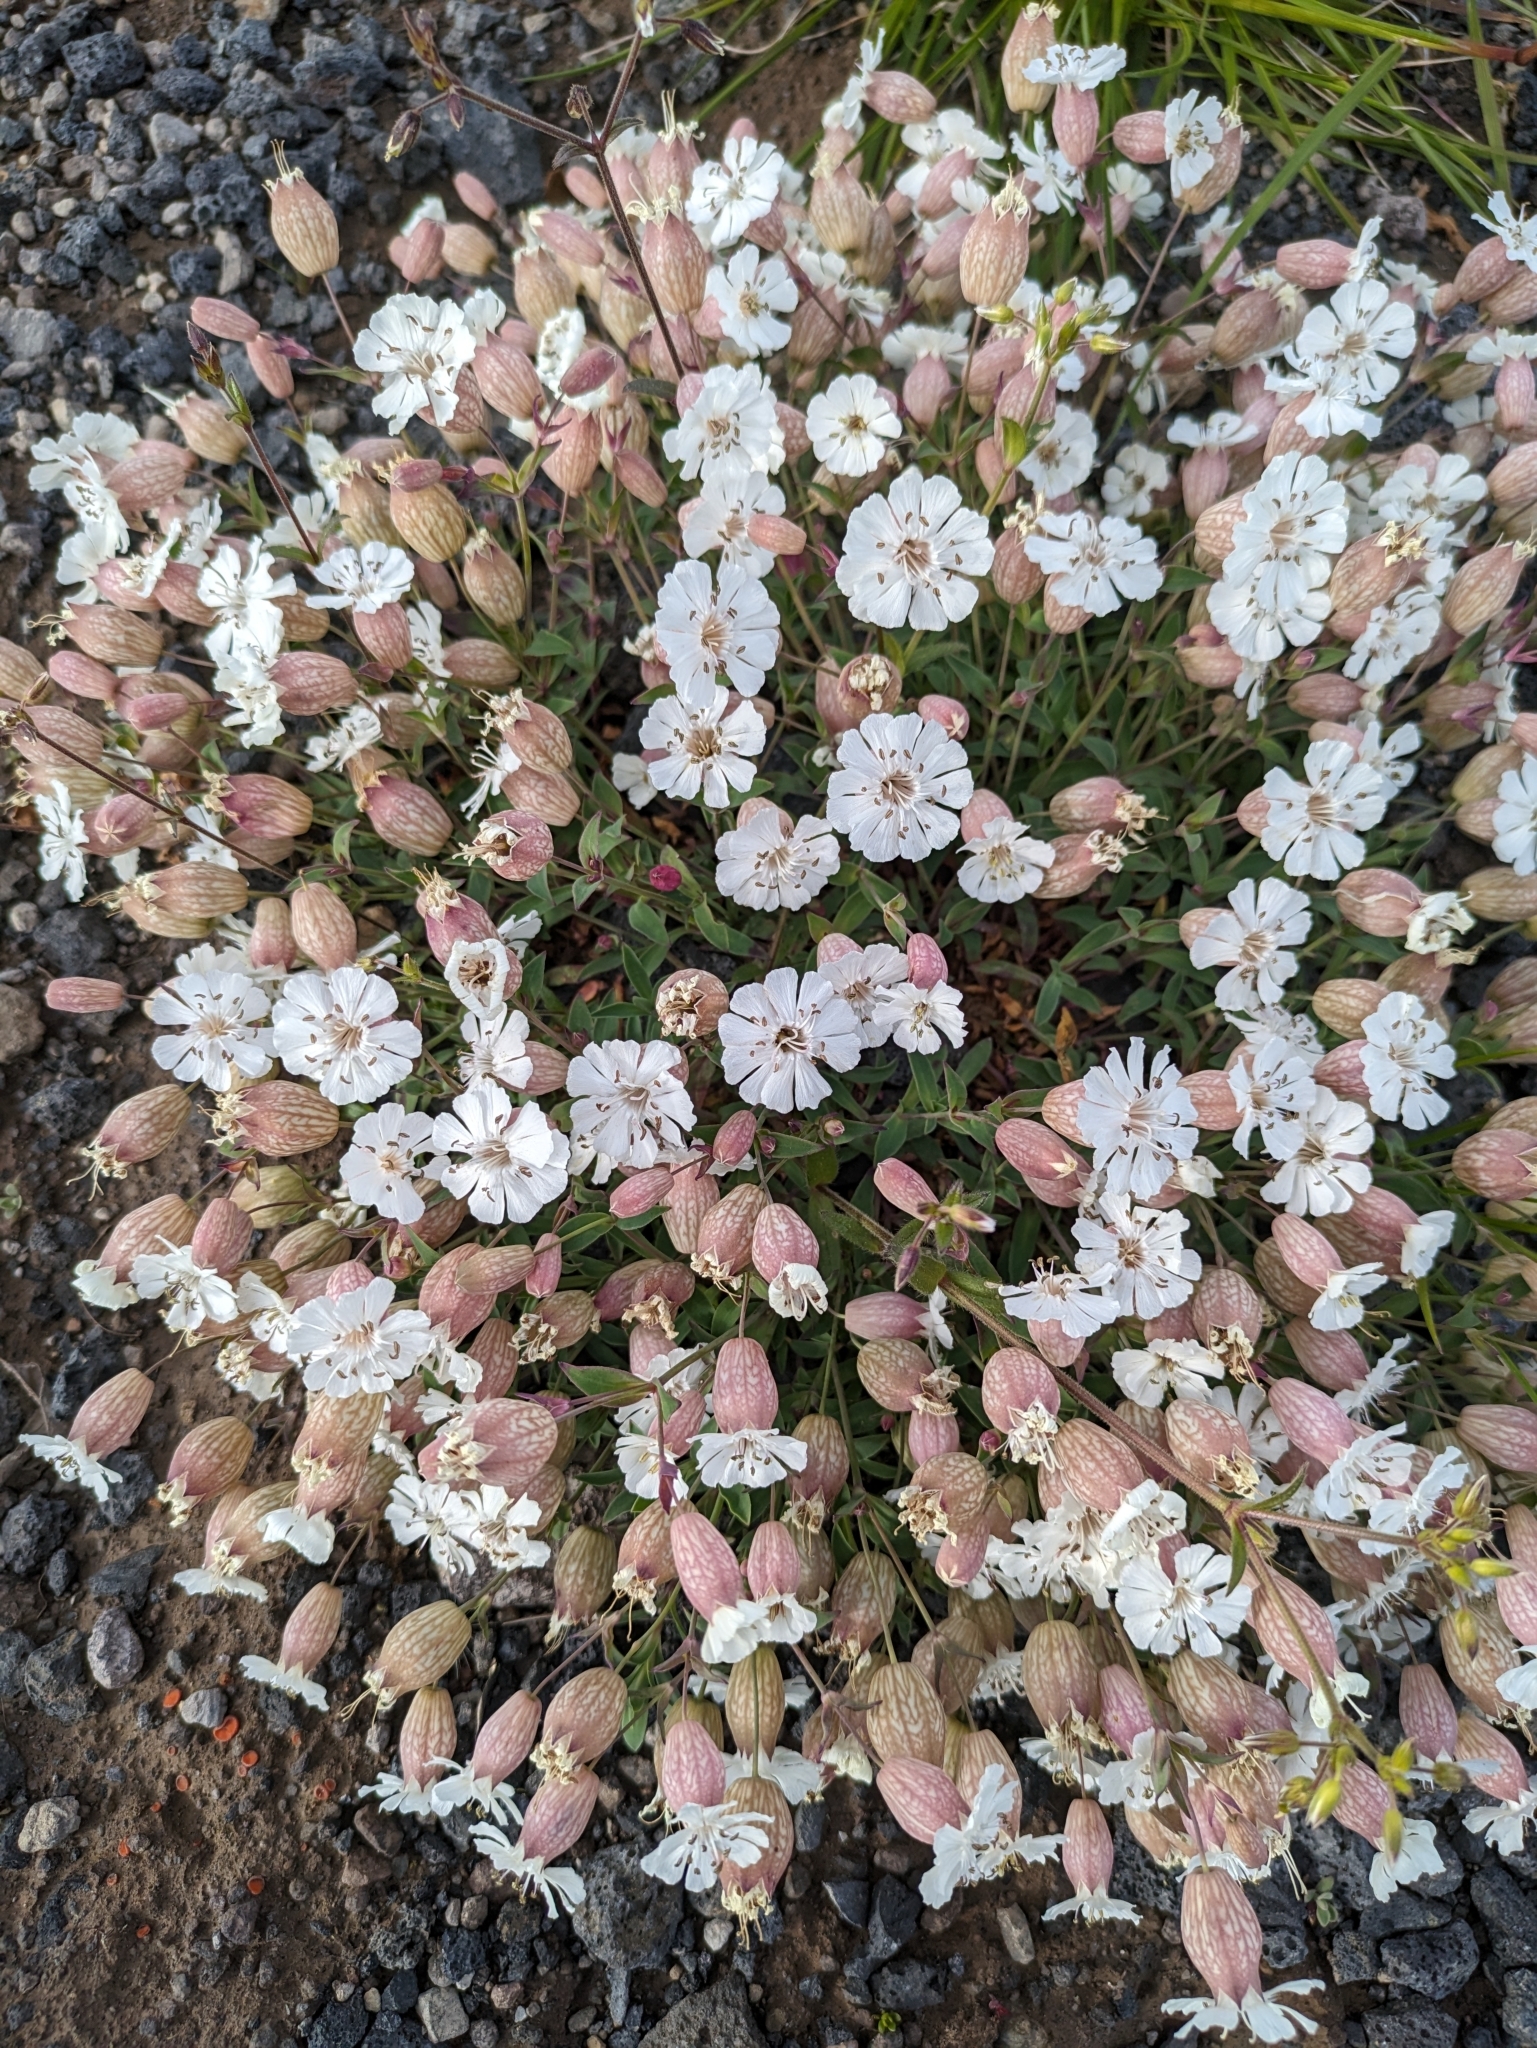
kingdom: Plantae
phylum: Tracheophyta
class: Magnoliopsida
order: Caryophyllales
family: Caryophyllaceae
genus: Silene
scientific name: Silene uniflora
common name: Sea campion
